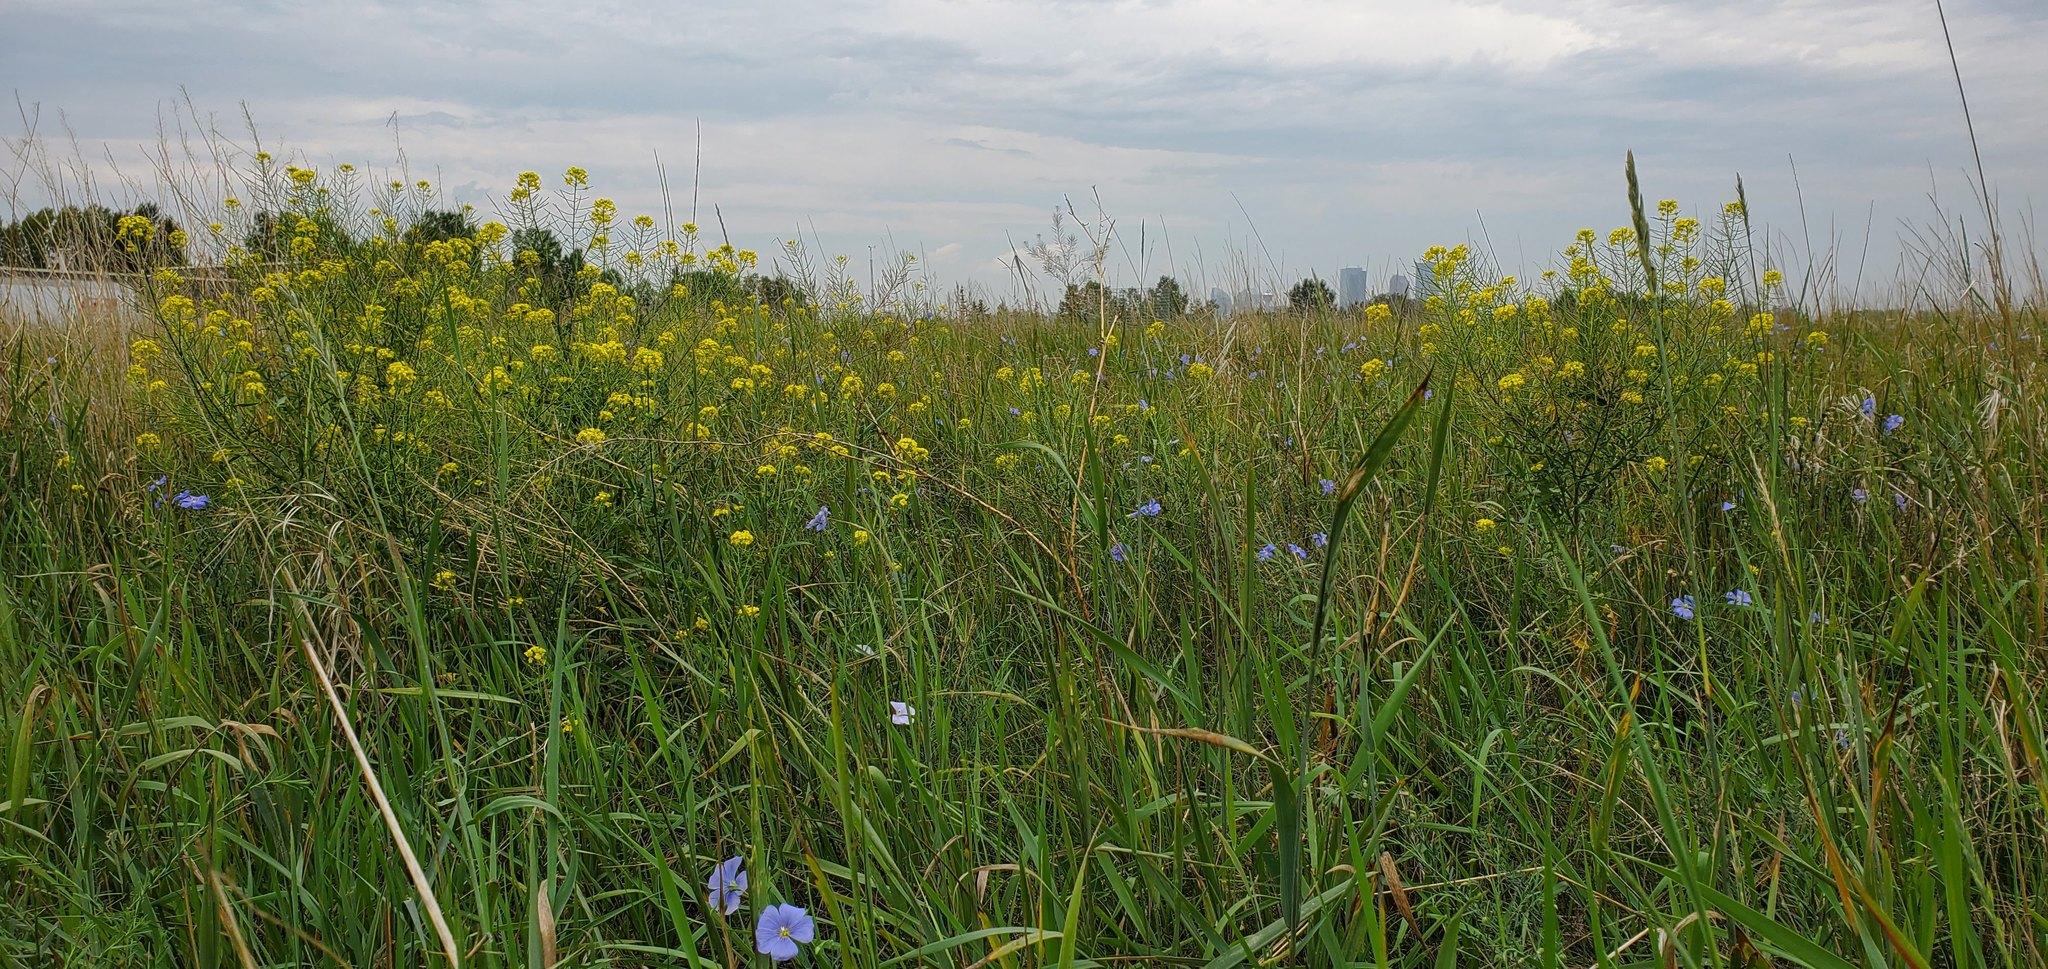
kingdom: Plantae
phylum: Tracheophyta
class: Magnoliopsida
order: Brassicales
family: Brassicaceae
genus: Sisymbrium
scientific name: Sisymbrium loeselii
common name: False london-rocket
